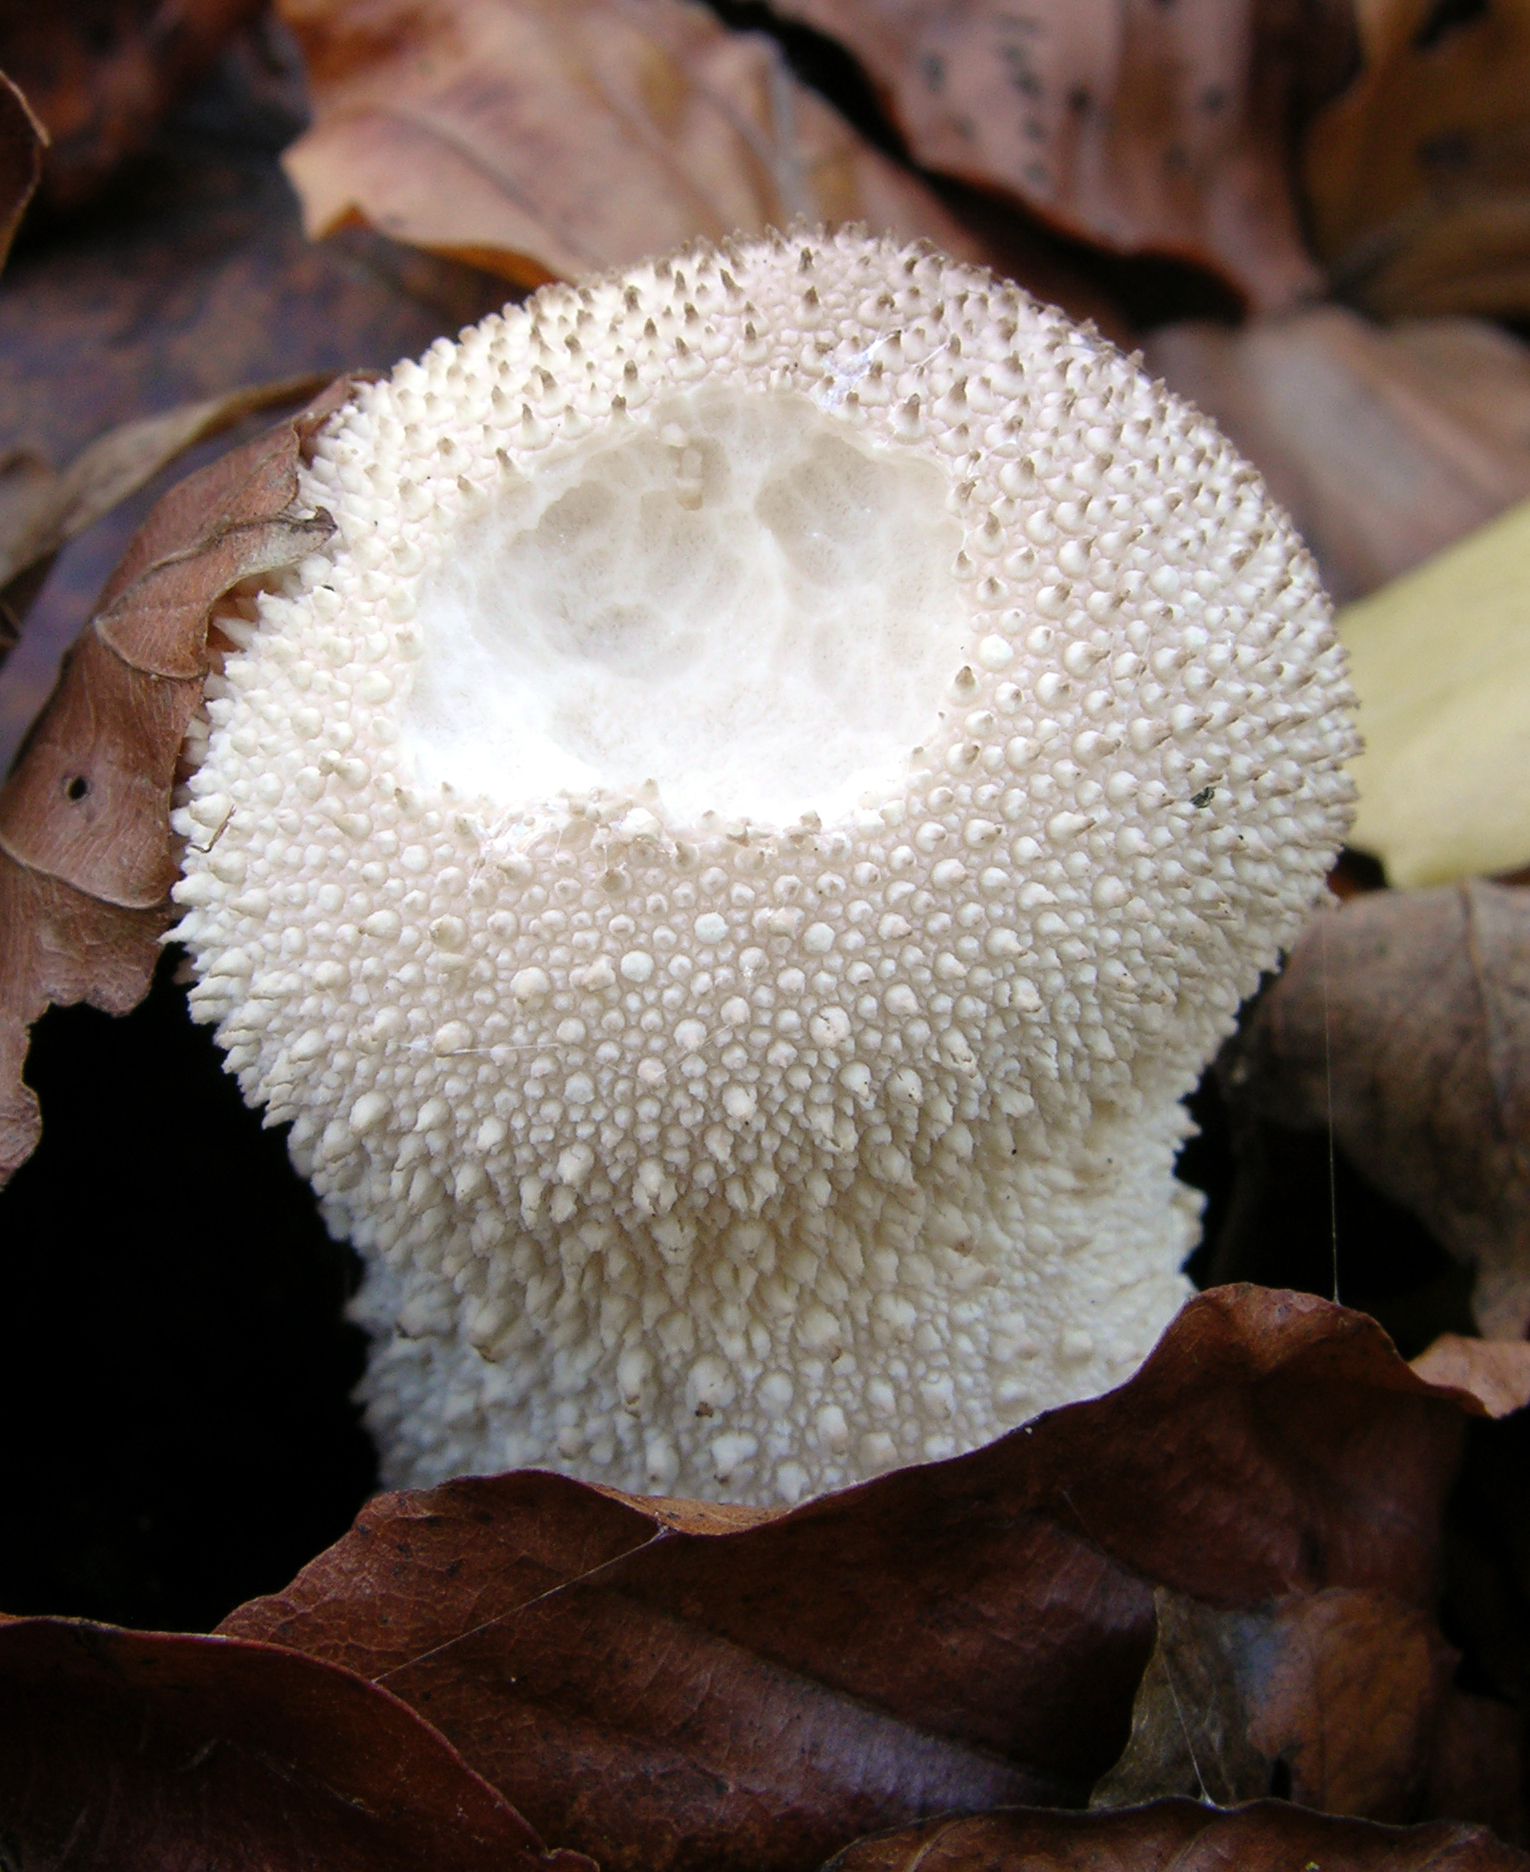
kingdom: Fungi
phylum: Basidiomycota
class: Agaricomycetes
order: Agaricales
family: Lycoperdaceae
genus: Lycoperdon
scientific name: Lycoperdon perlatum
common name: Common puffball
